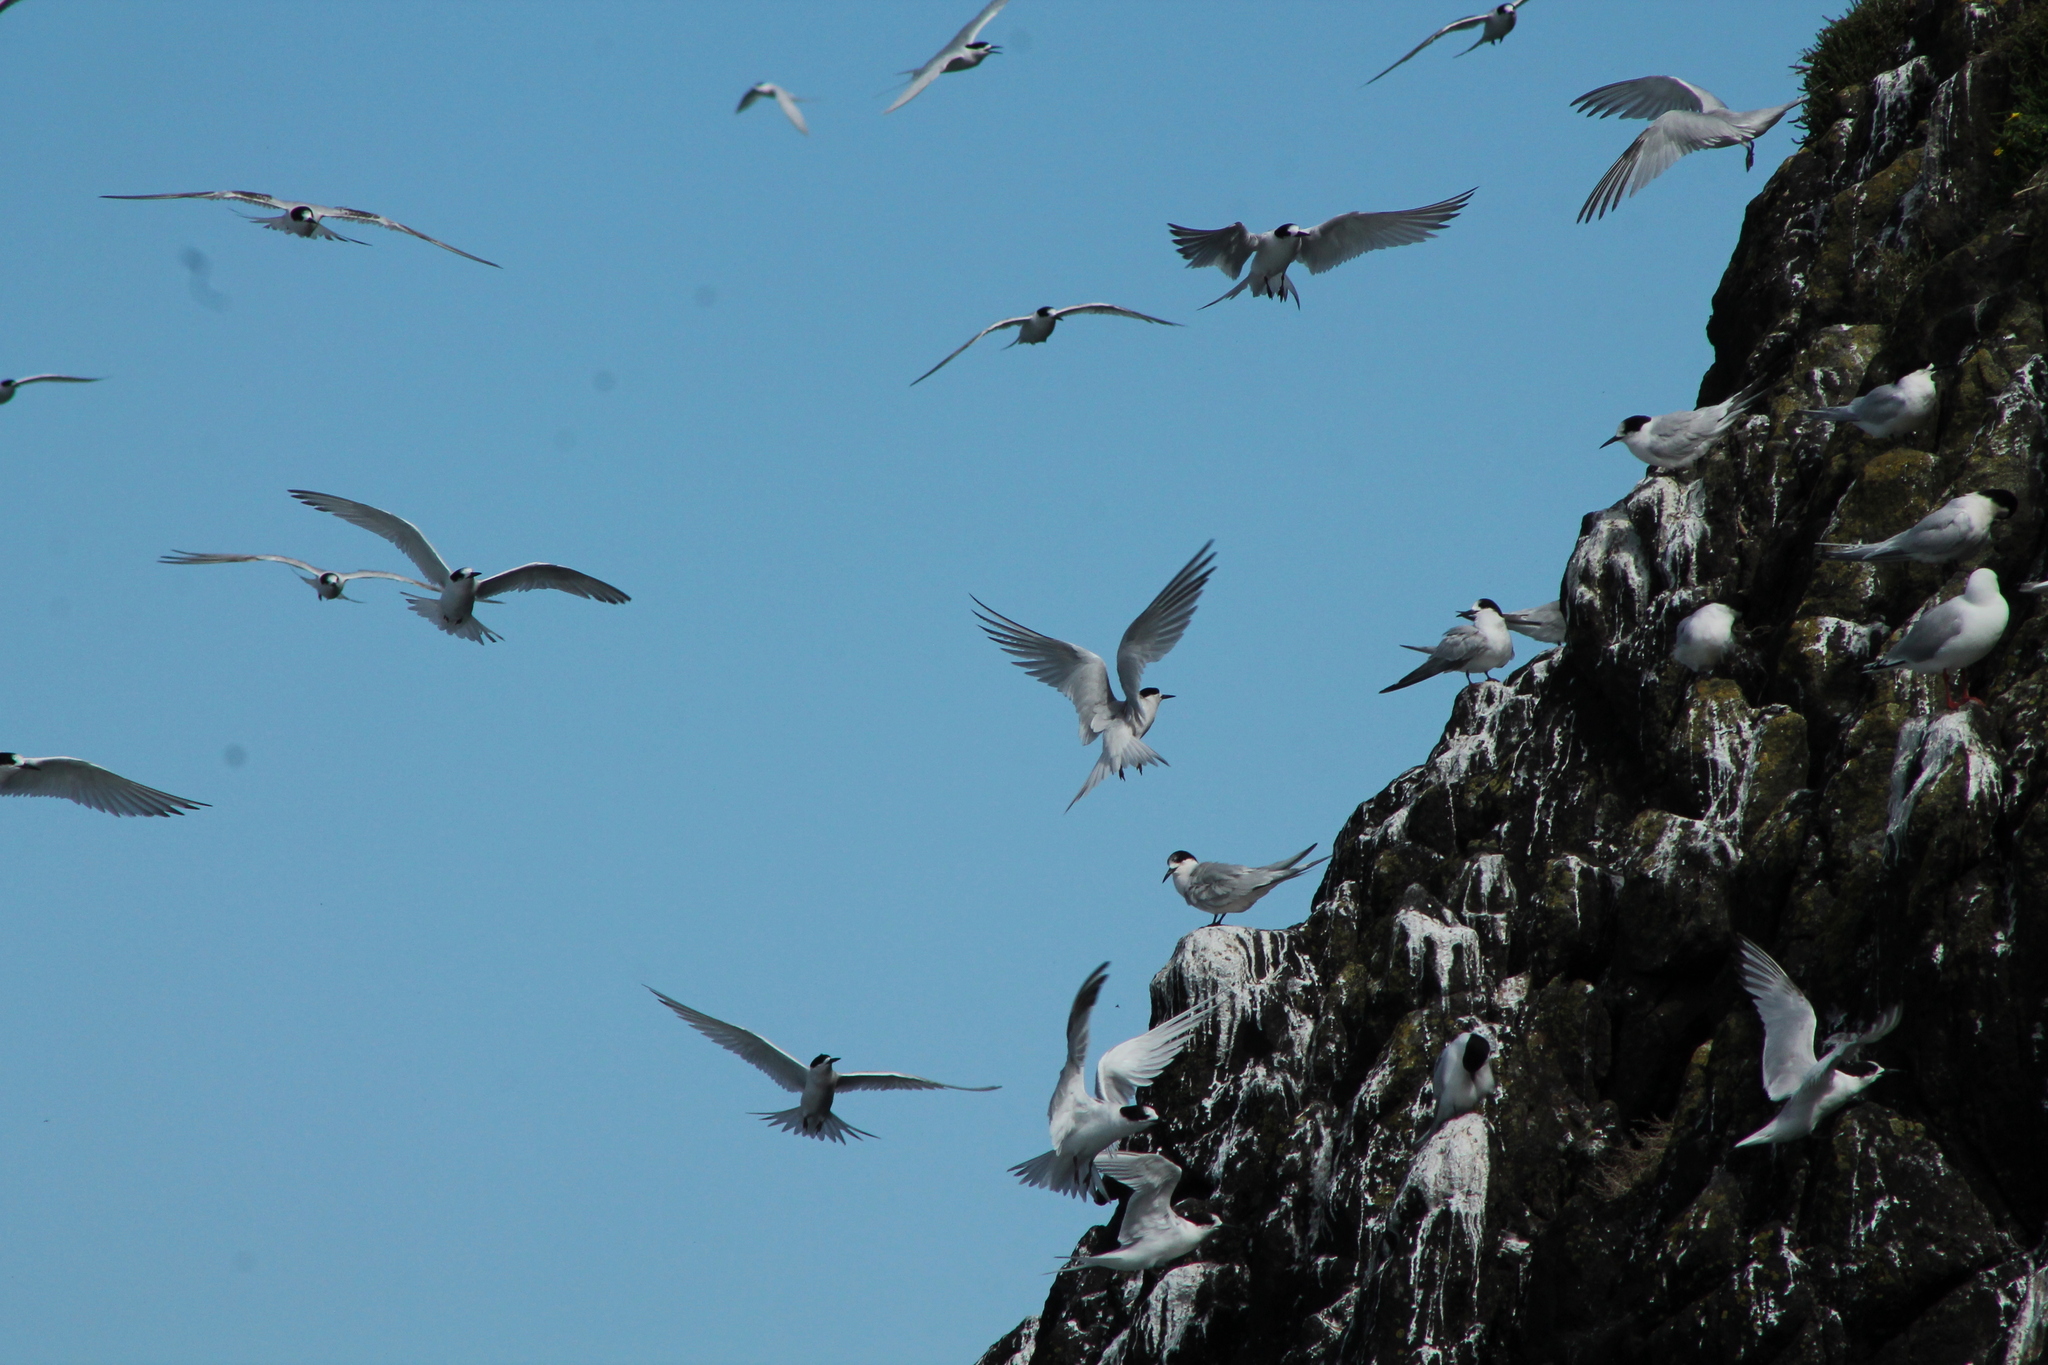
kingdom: Animalia
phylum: Chordata
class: Aves
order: Charadriiformes
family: Laridae
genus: Sterna
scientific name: Sterna striata
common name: White-fronted tern
